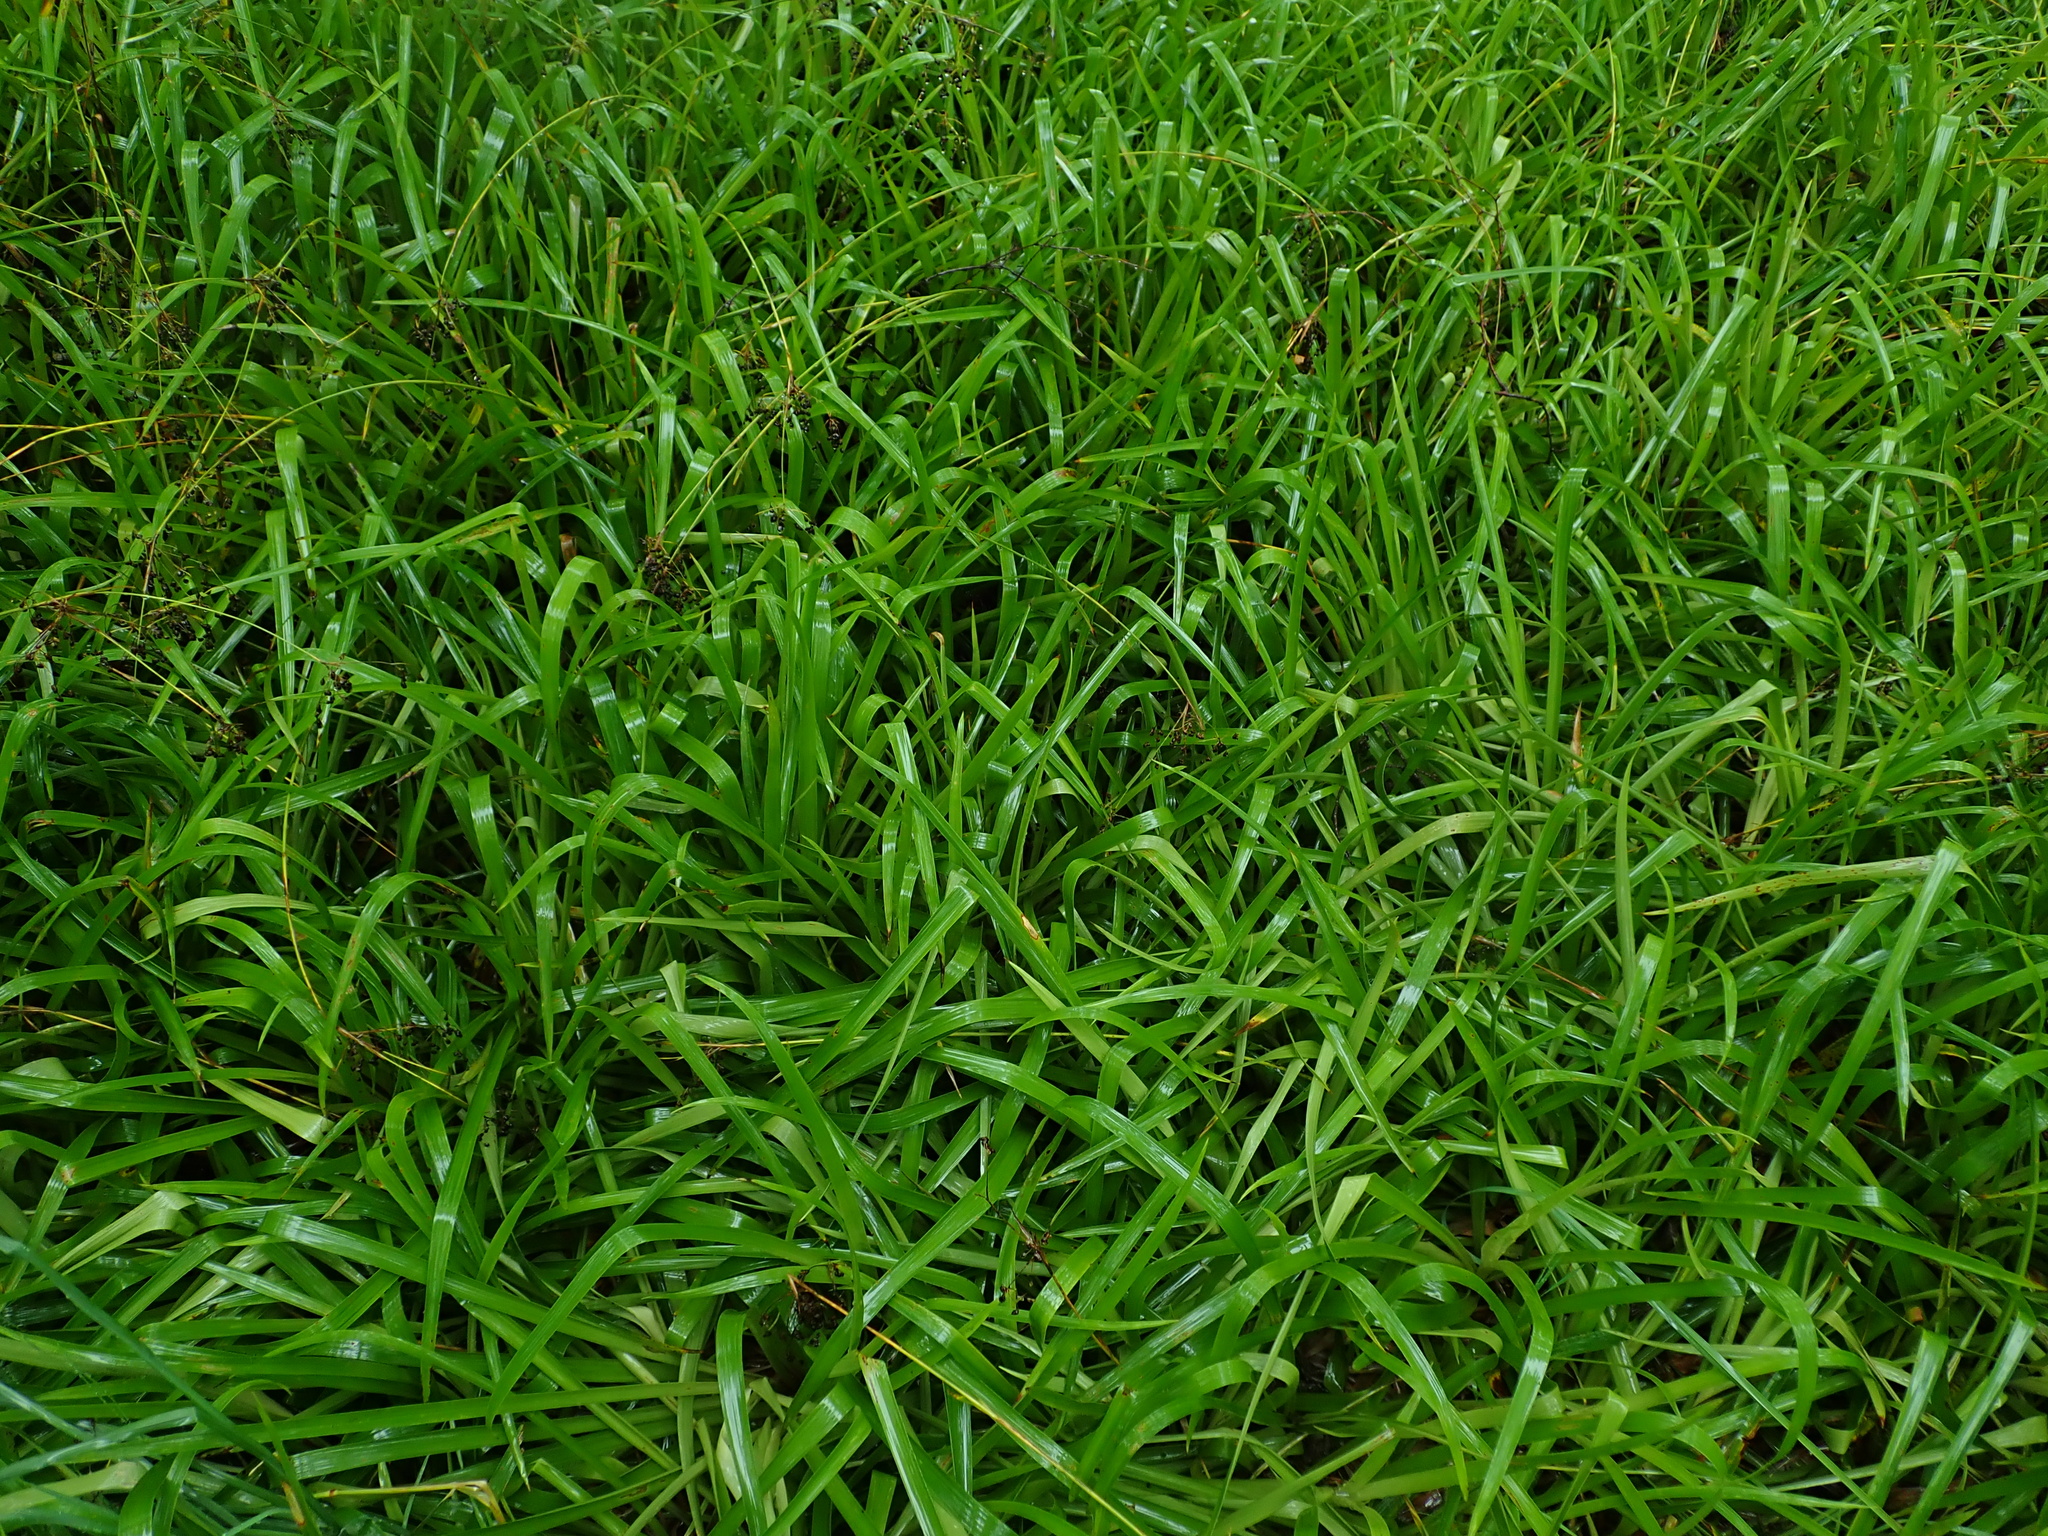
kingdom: Plantae
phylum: Tracheophyta
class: Liliopsida
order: Poales
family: Juncaceae
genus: Luzula
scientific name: Luzula sylvatica
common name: Great wood-rush
